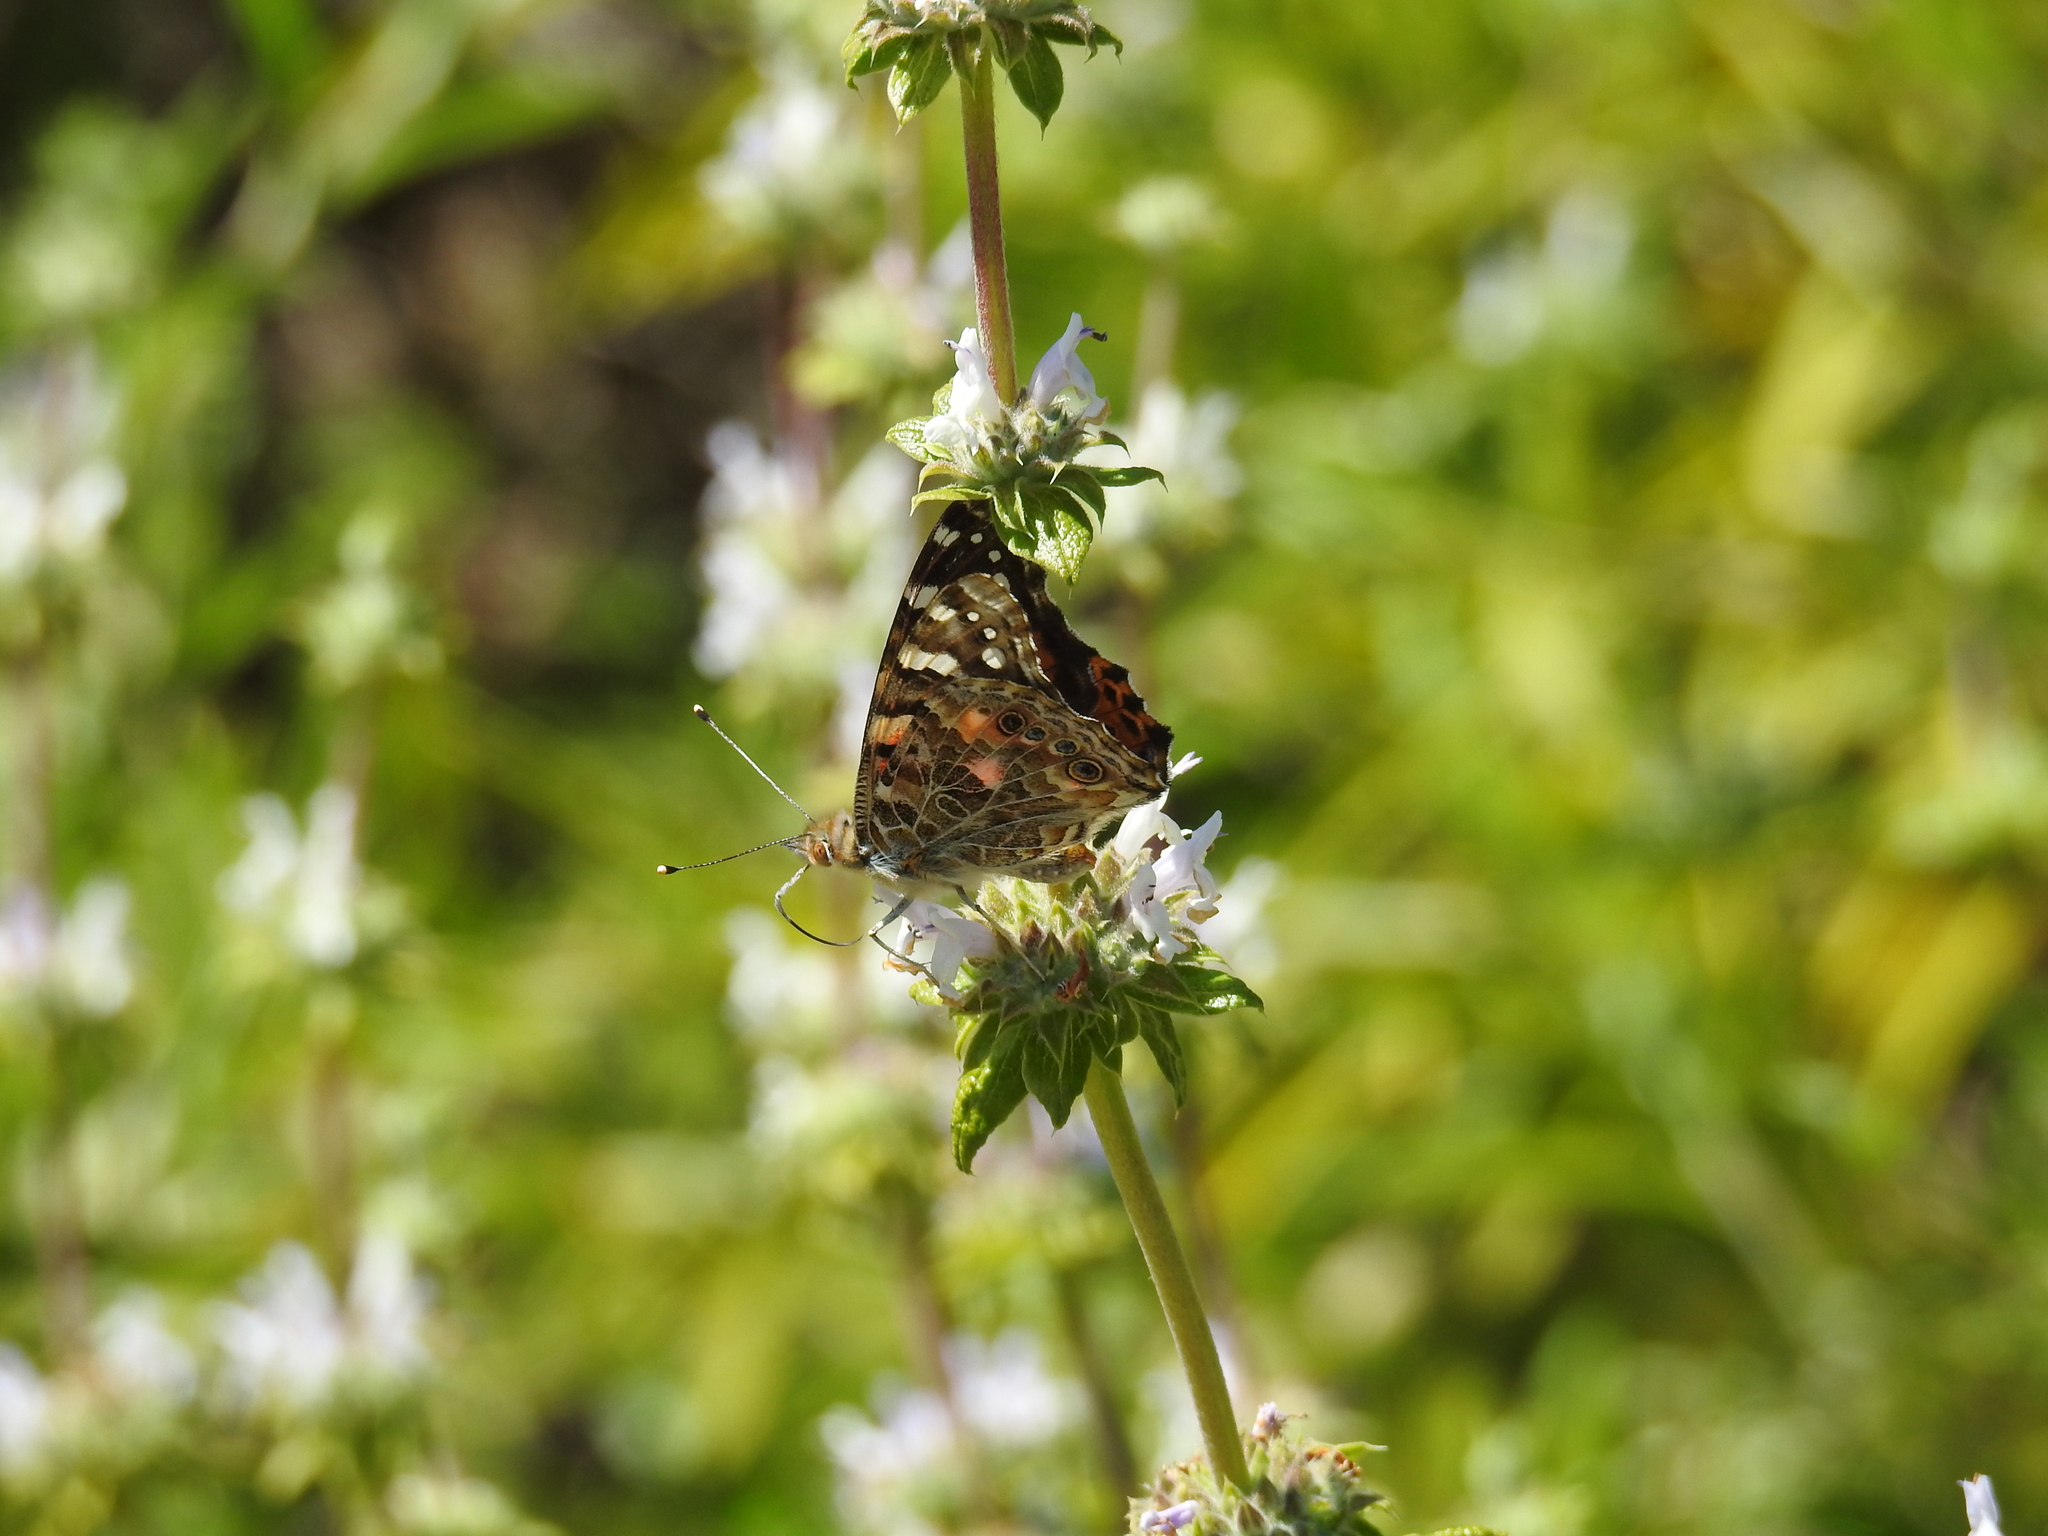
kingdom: Animalia
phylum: Arthropoda
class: Insecta
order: Lepidoptera
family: Nymphalidae
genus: Vanessa
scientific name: Vanessa cardui
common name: Painted lady
